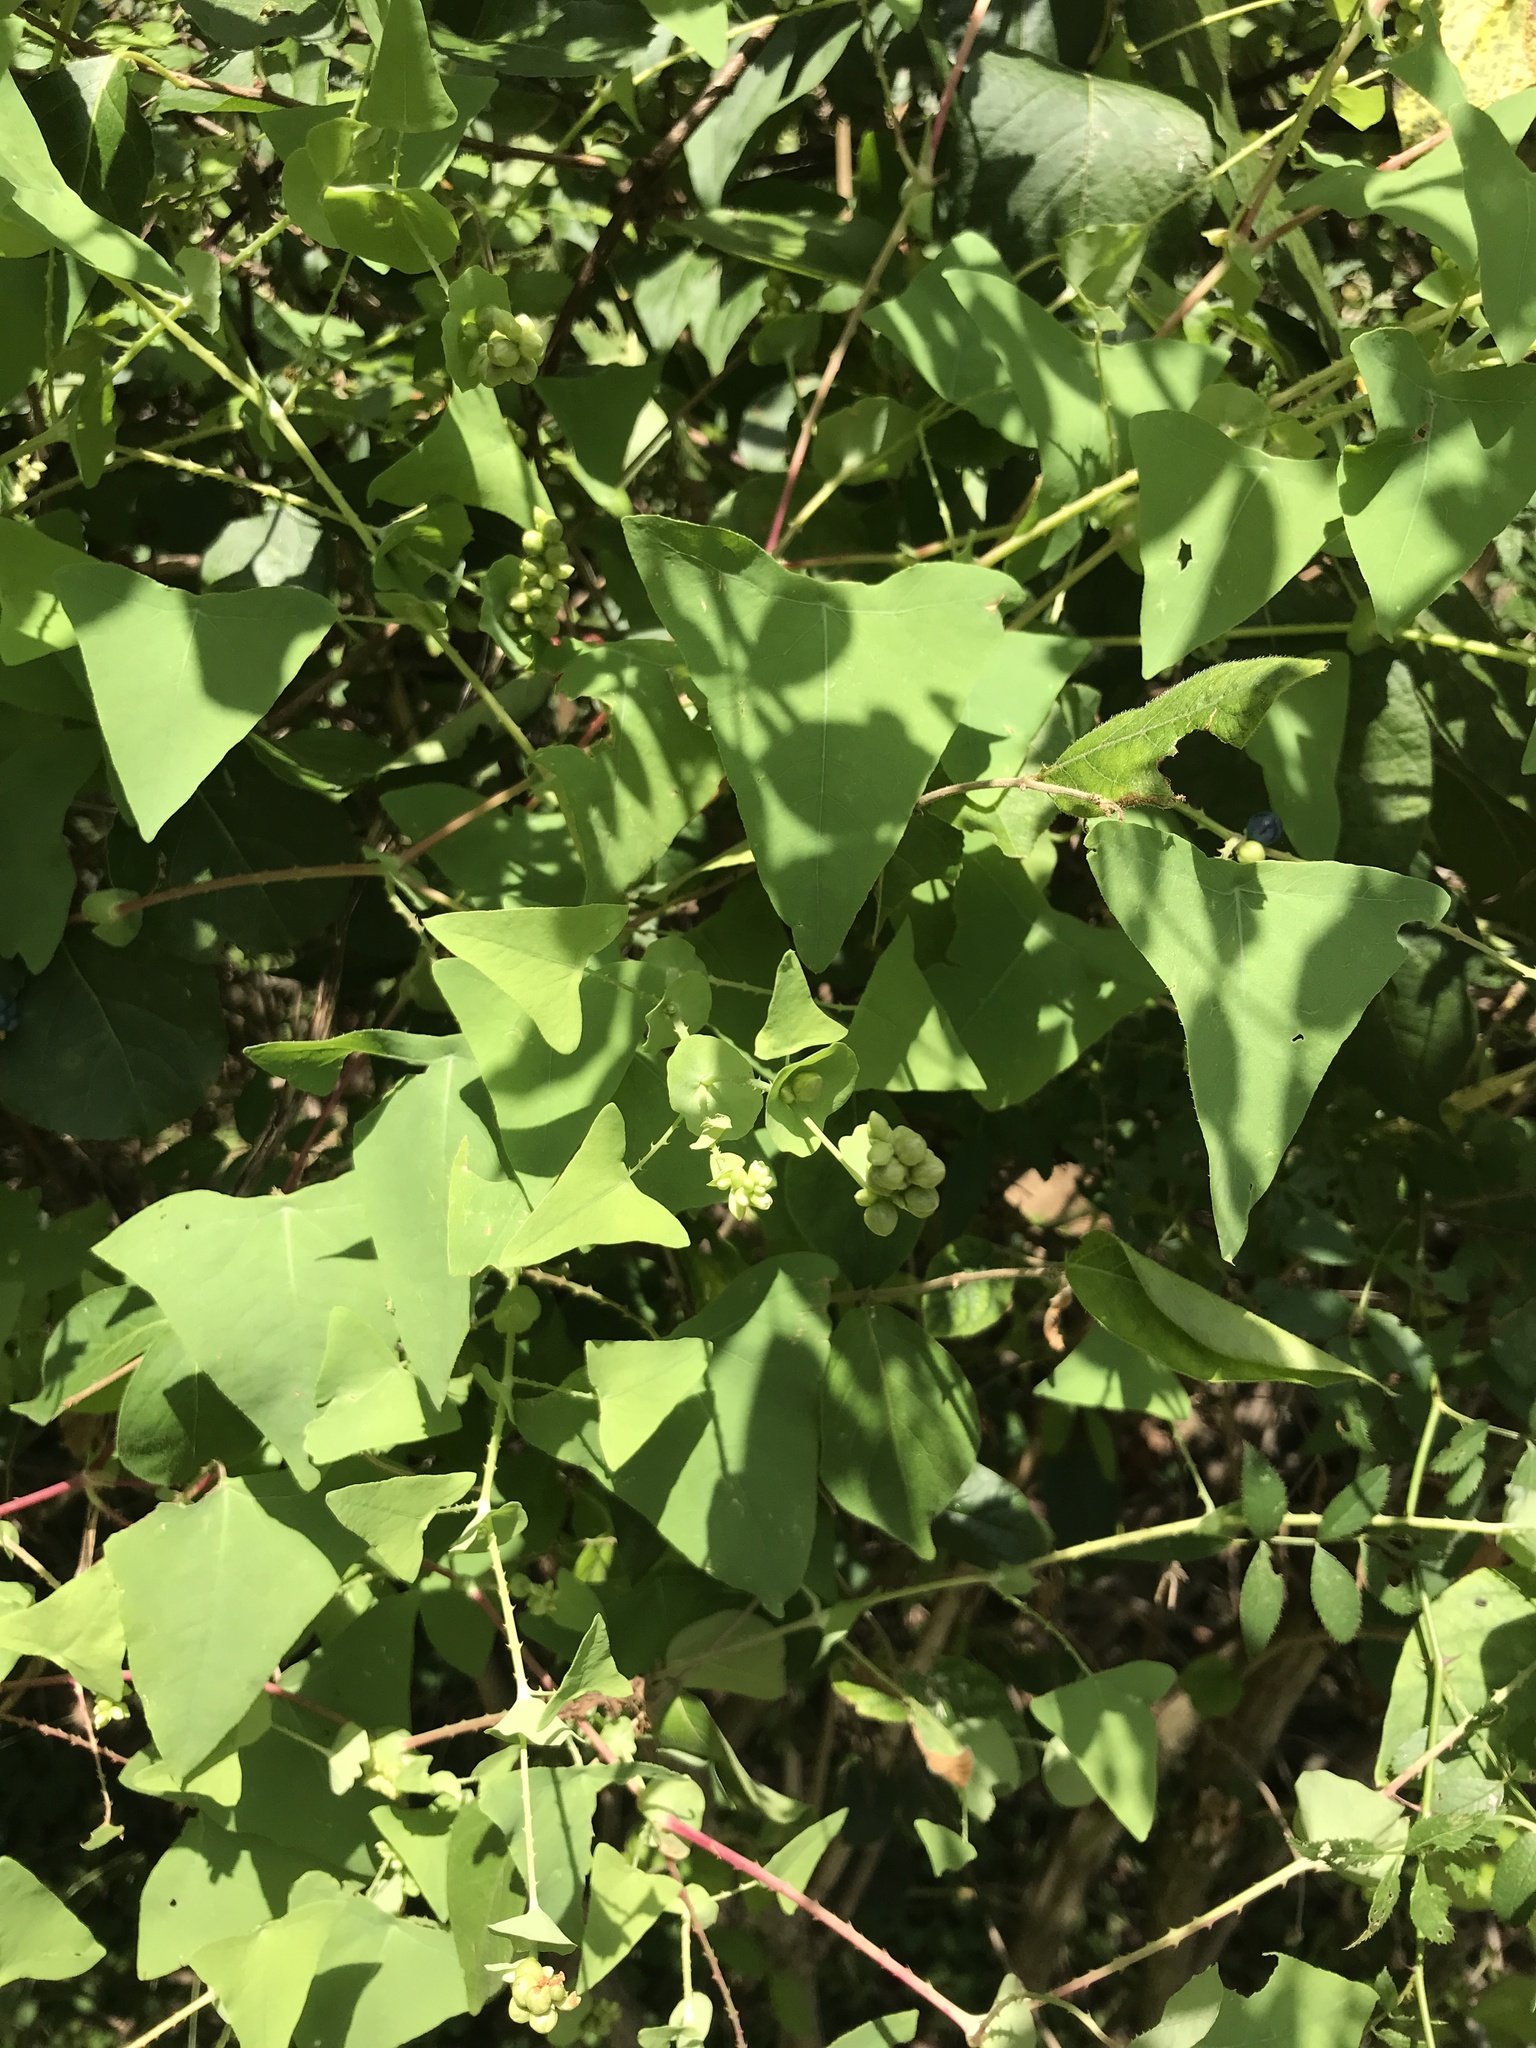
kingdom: Plantae
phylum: Tracheophyta
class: Magnoliopsida
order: Caryophyllales
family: Polygonaceae
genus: Persicaria
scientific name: Persicaria perfoliata
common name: Asiatic tearthumb
